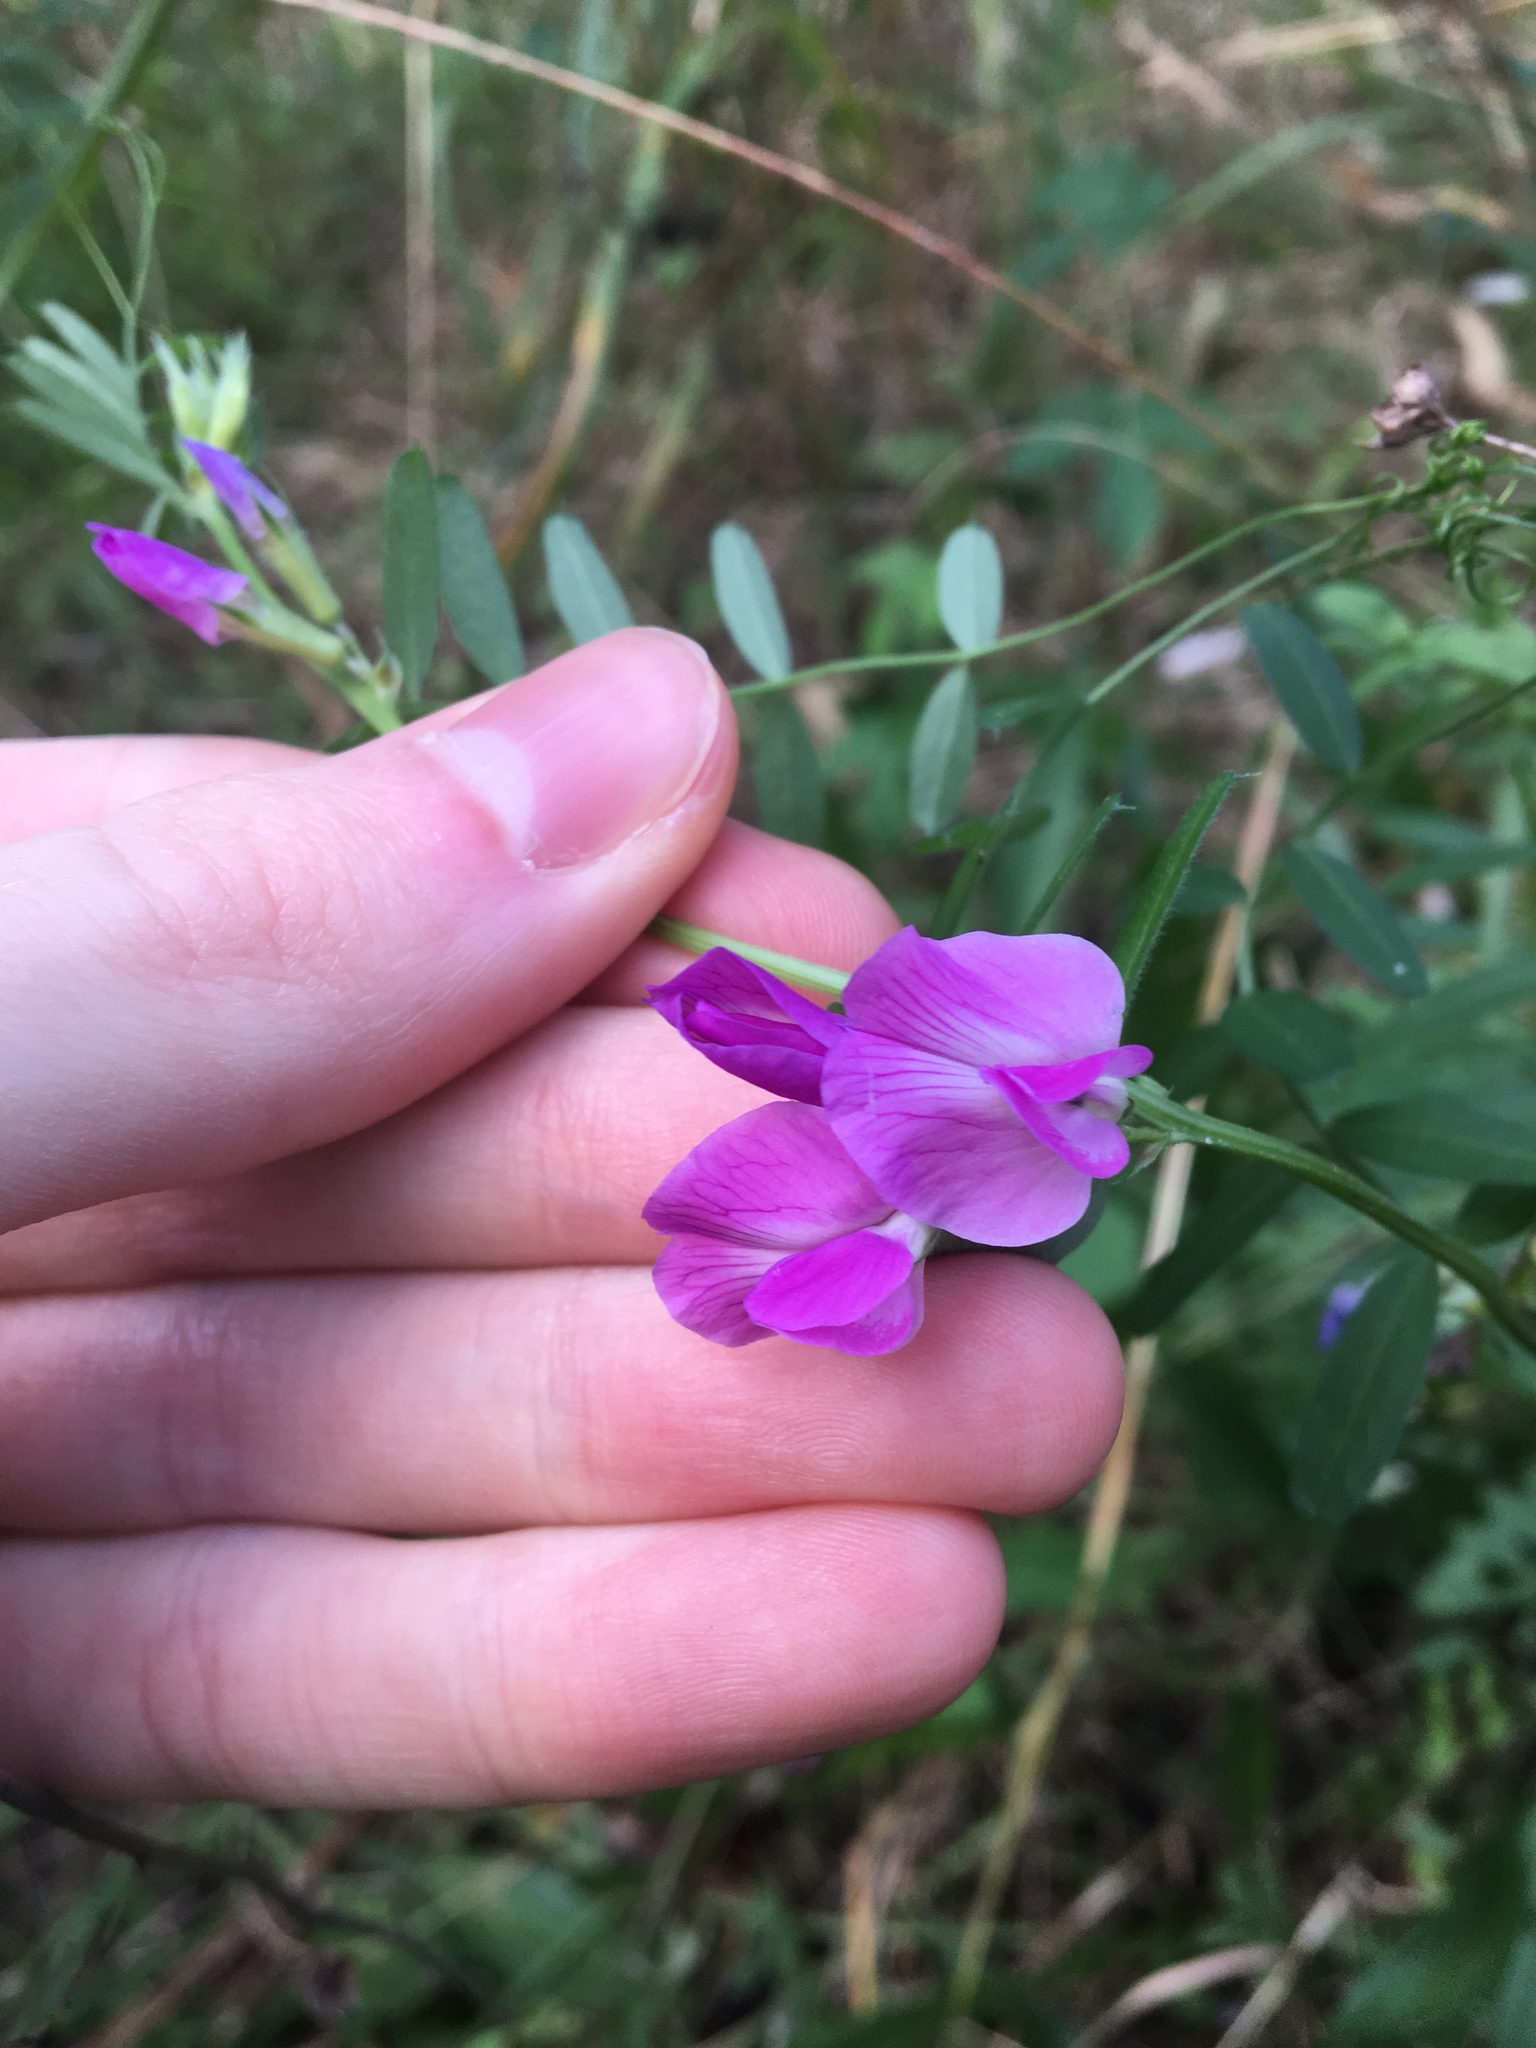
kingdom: Plantae
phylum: Tracheophyta
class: Magnoliopsida
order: Fabales
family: Fabaceae
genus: Vicia
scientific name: Vicia sativa
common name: Garden vetch
